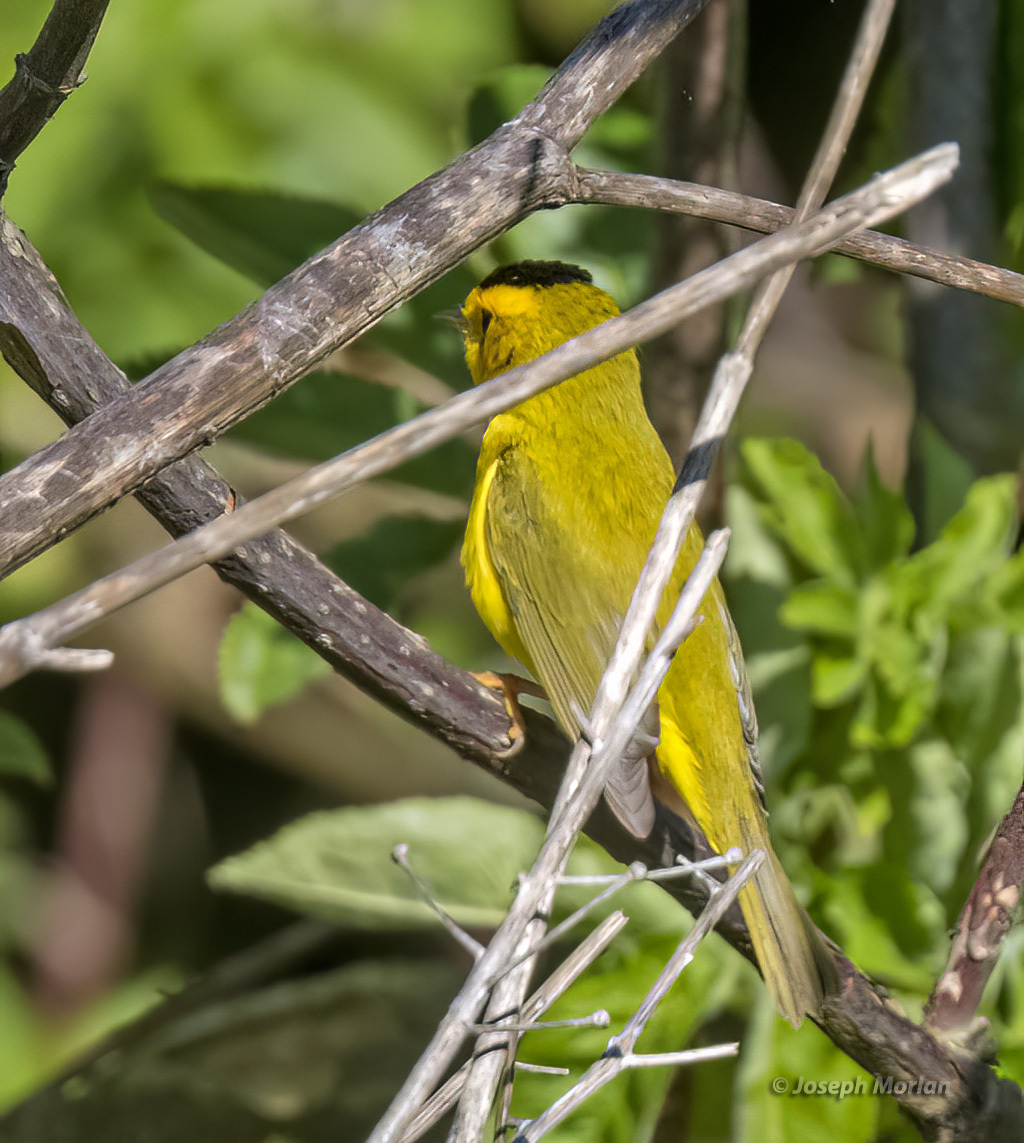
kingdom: Animalia
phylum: Chordata
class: Aves
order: Passeriformes
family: Parulidae
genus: Cardellina
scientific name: Cardellina pusilla
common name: Wilson's warbler
